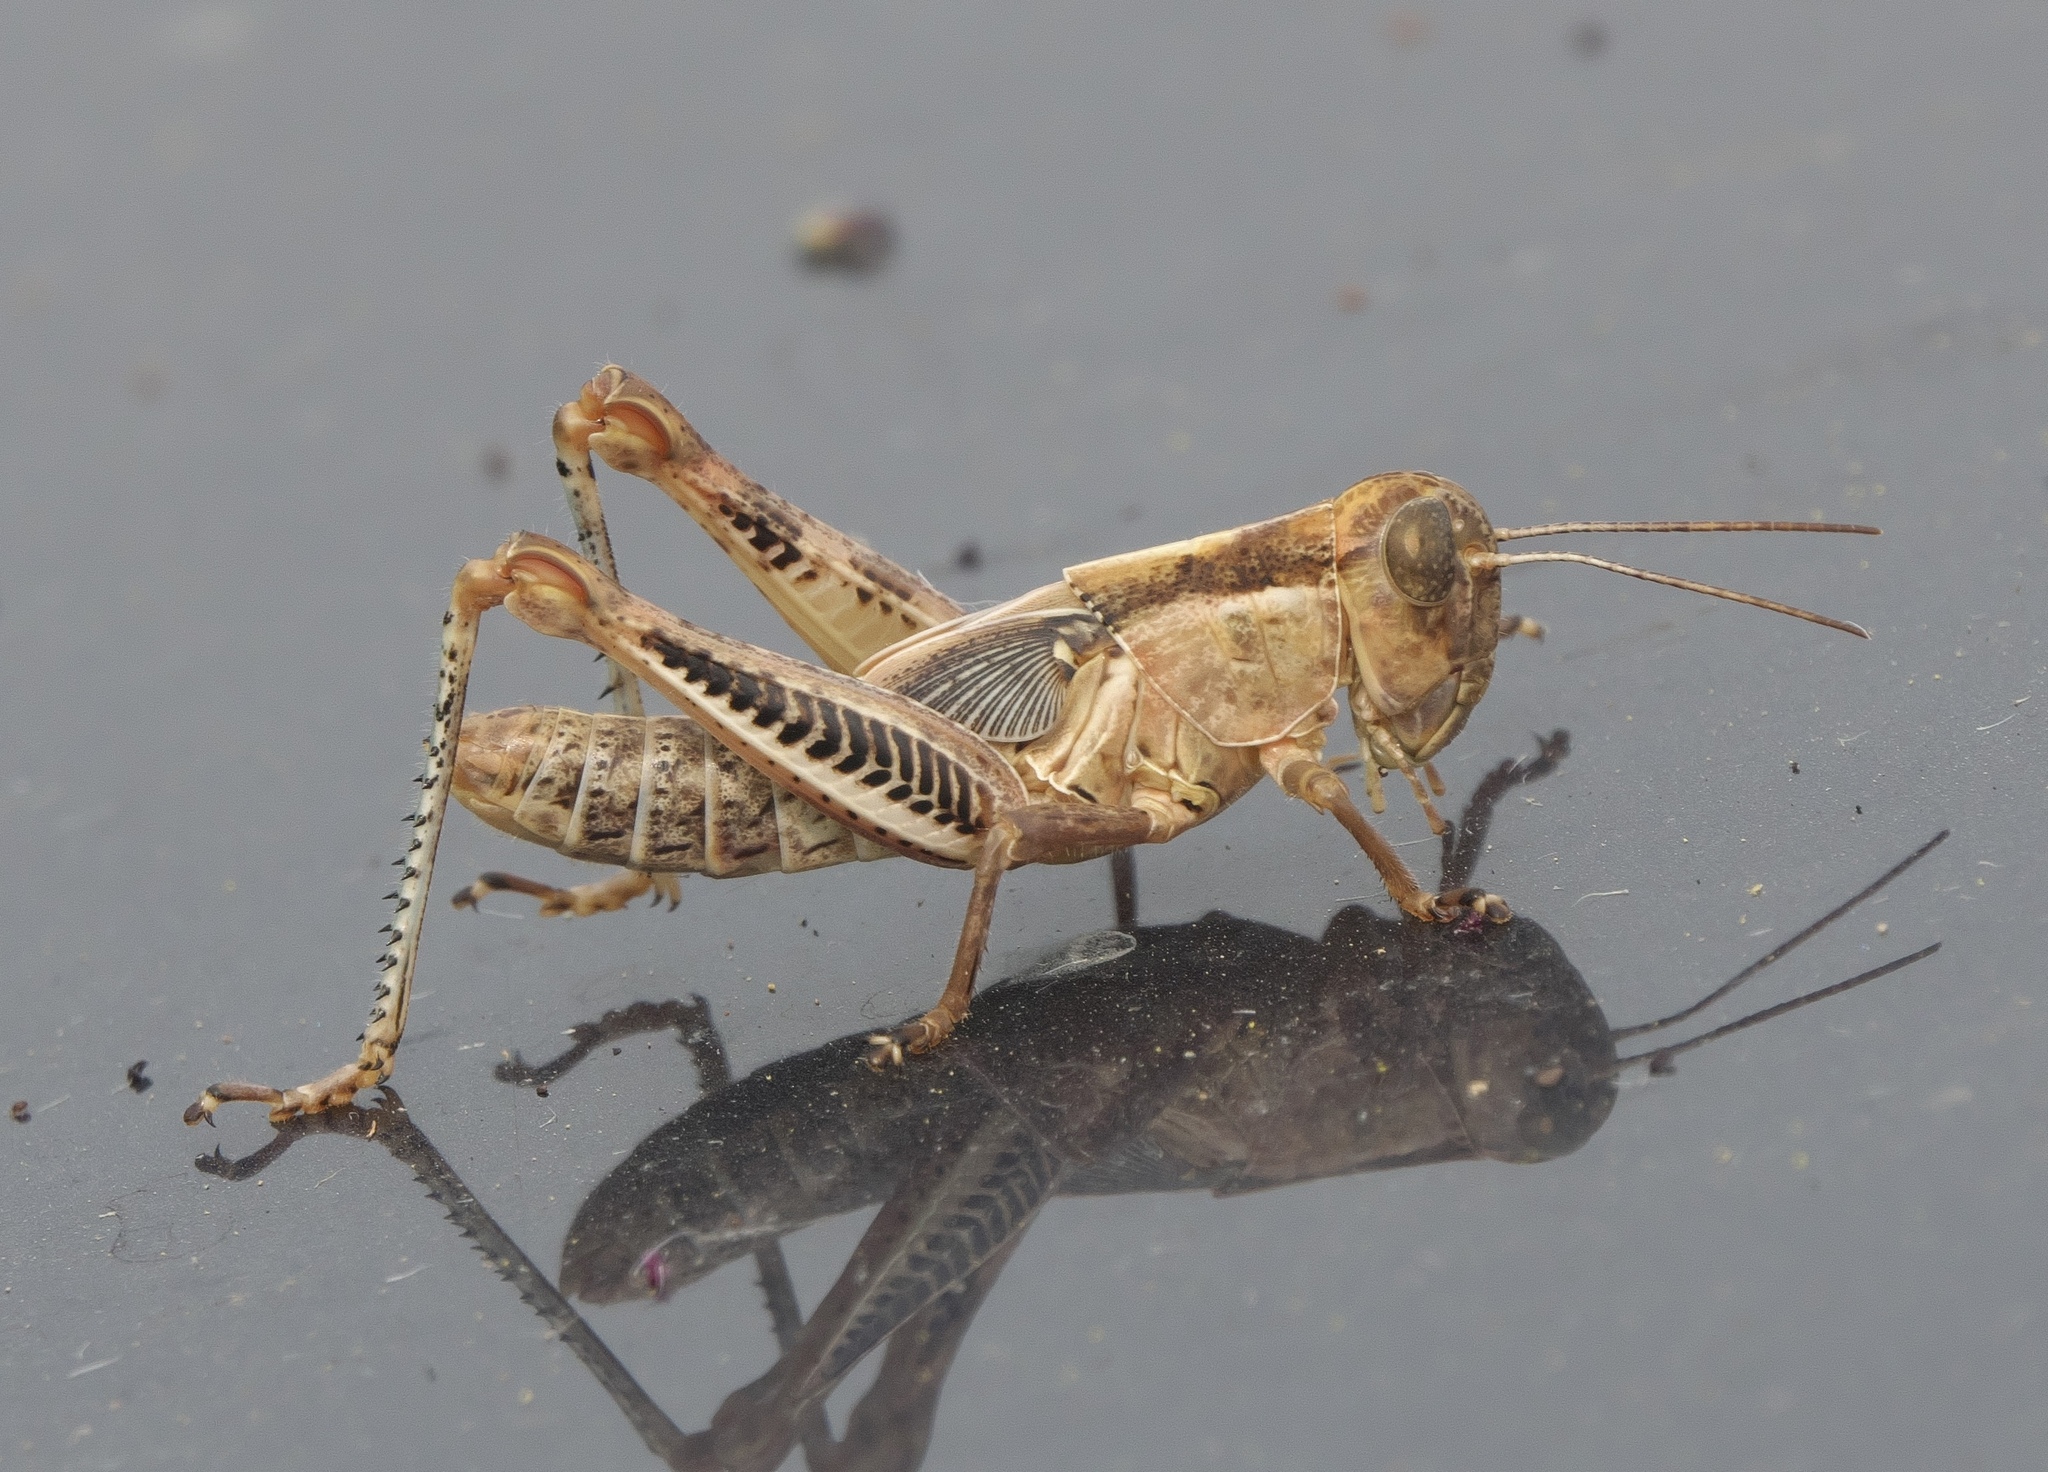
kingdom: Animalia
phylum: Arthropoda
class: Insecta
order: Orthoptera
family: Acrididae
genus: Melanoplus
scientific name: Melanoplus differentialis
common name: Differential grasshopper
